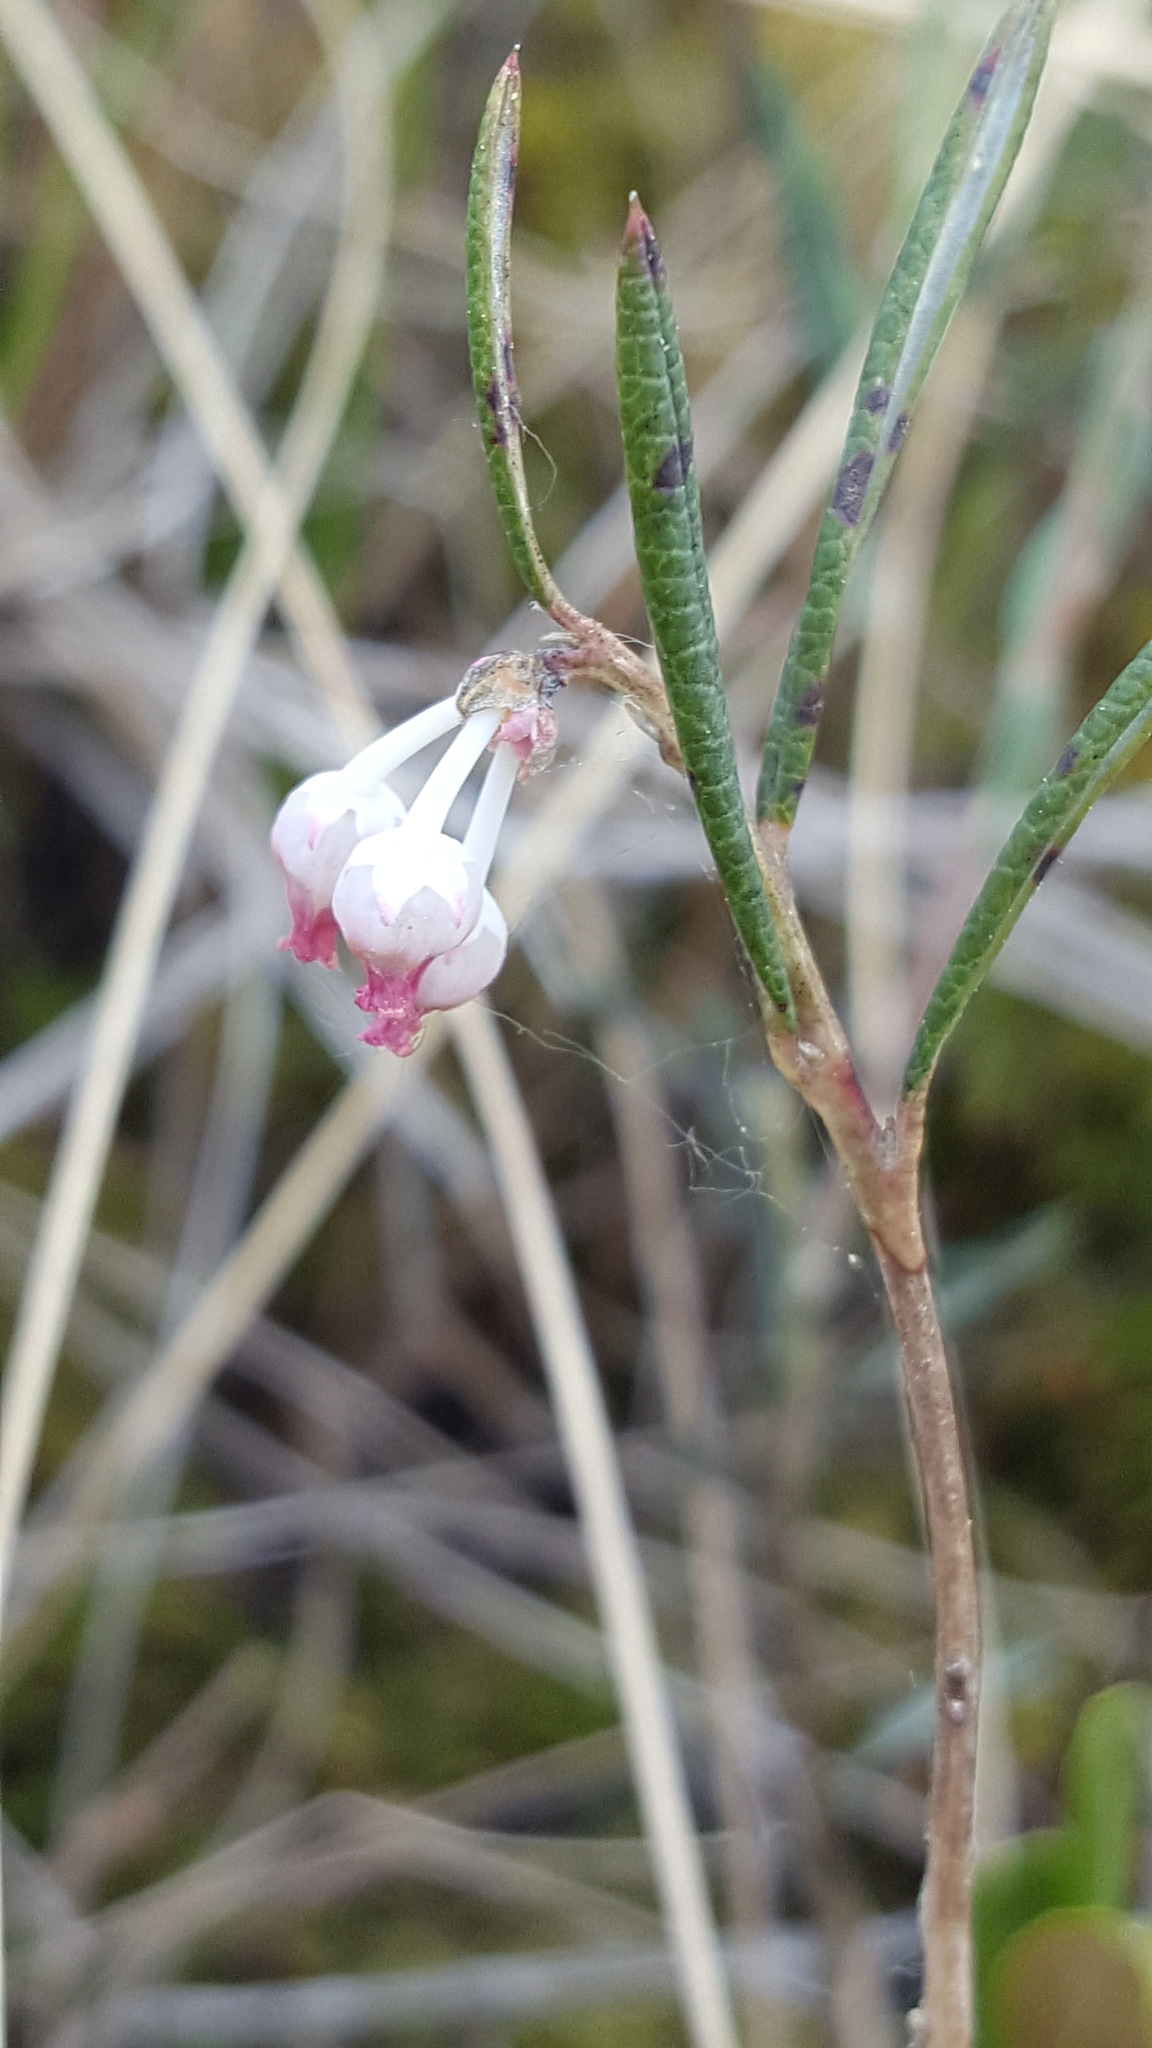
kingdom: Plantae
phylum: Tracheophyta
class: Magnoliopsida
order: Ericales
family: Ericaceae
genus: Andromeda
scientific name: Andromeda polifolia
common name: Bog-rosemary
